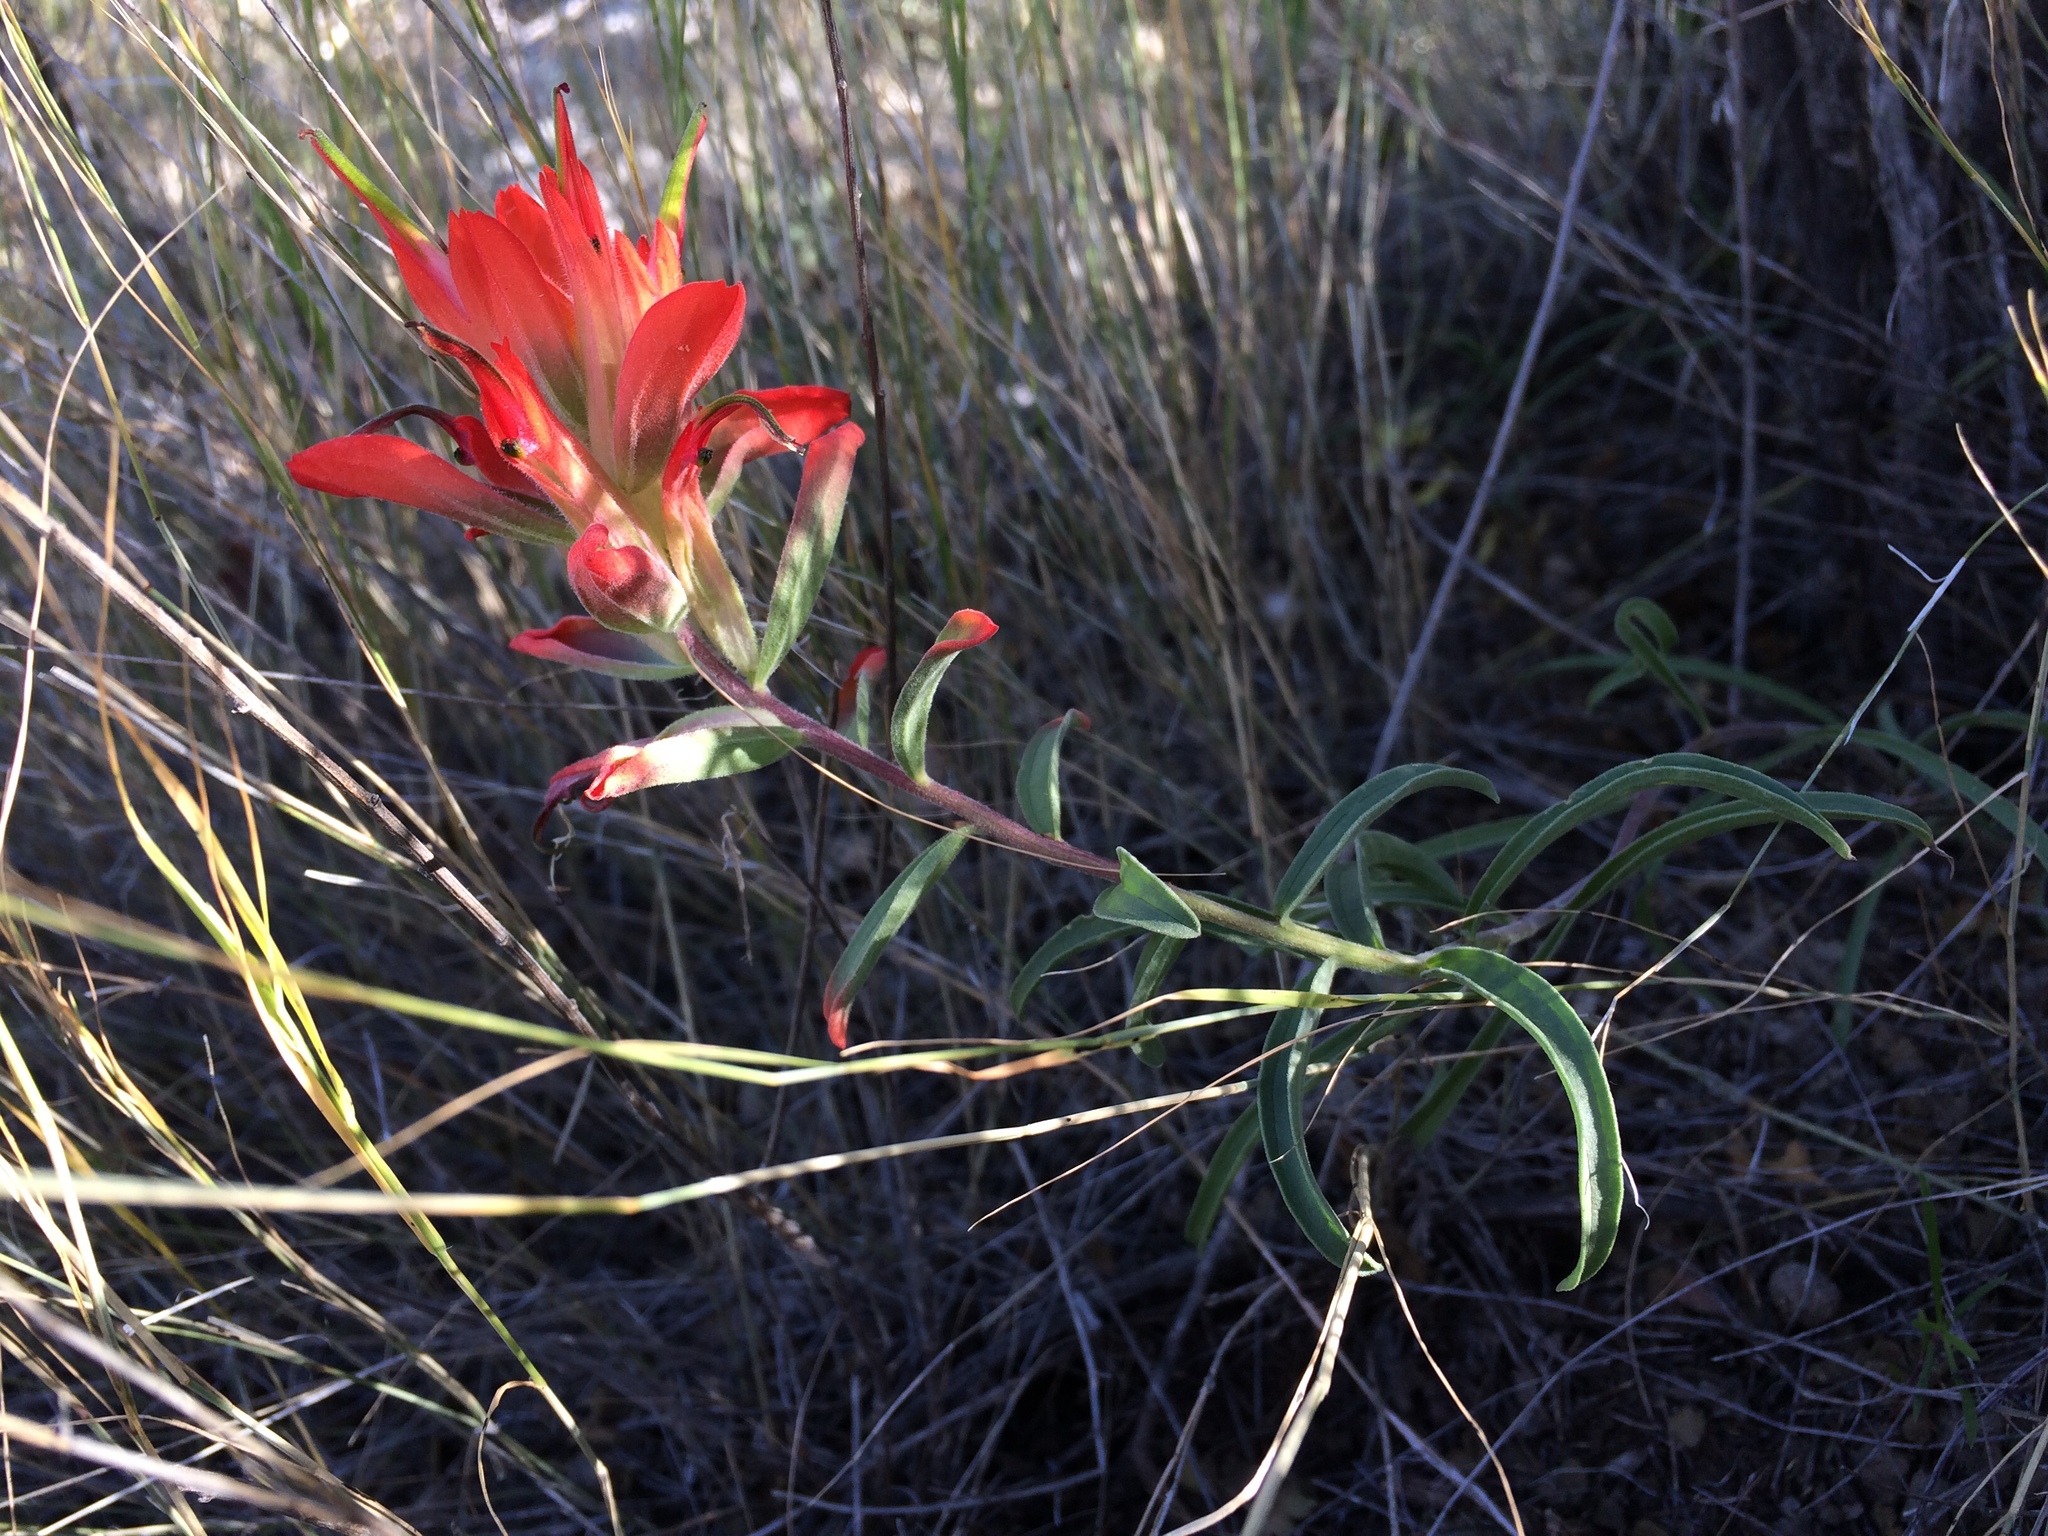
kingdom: Plantae
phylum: Tracheophyta
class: Magnoliopsida
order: Lamiales
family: Orobanchaceae
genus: Castilleja
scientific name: Castilleja integra
